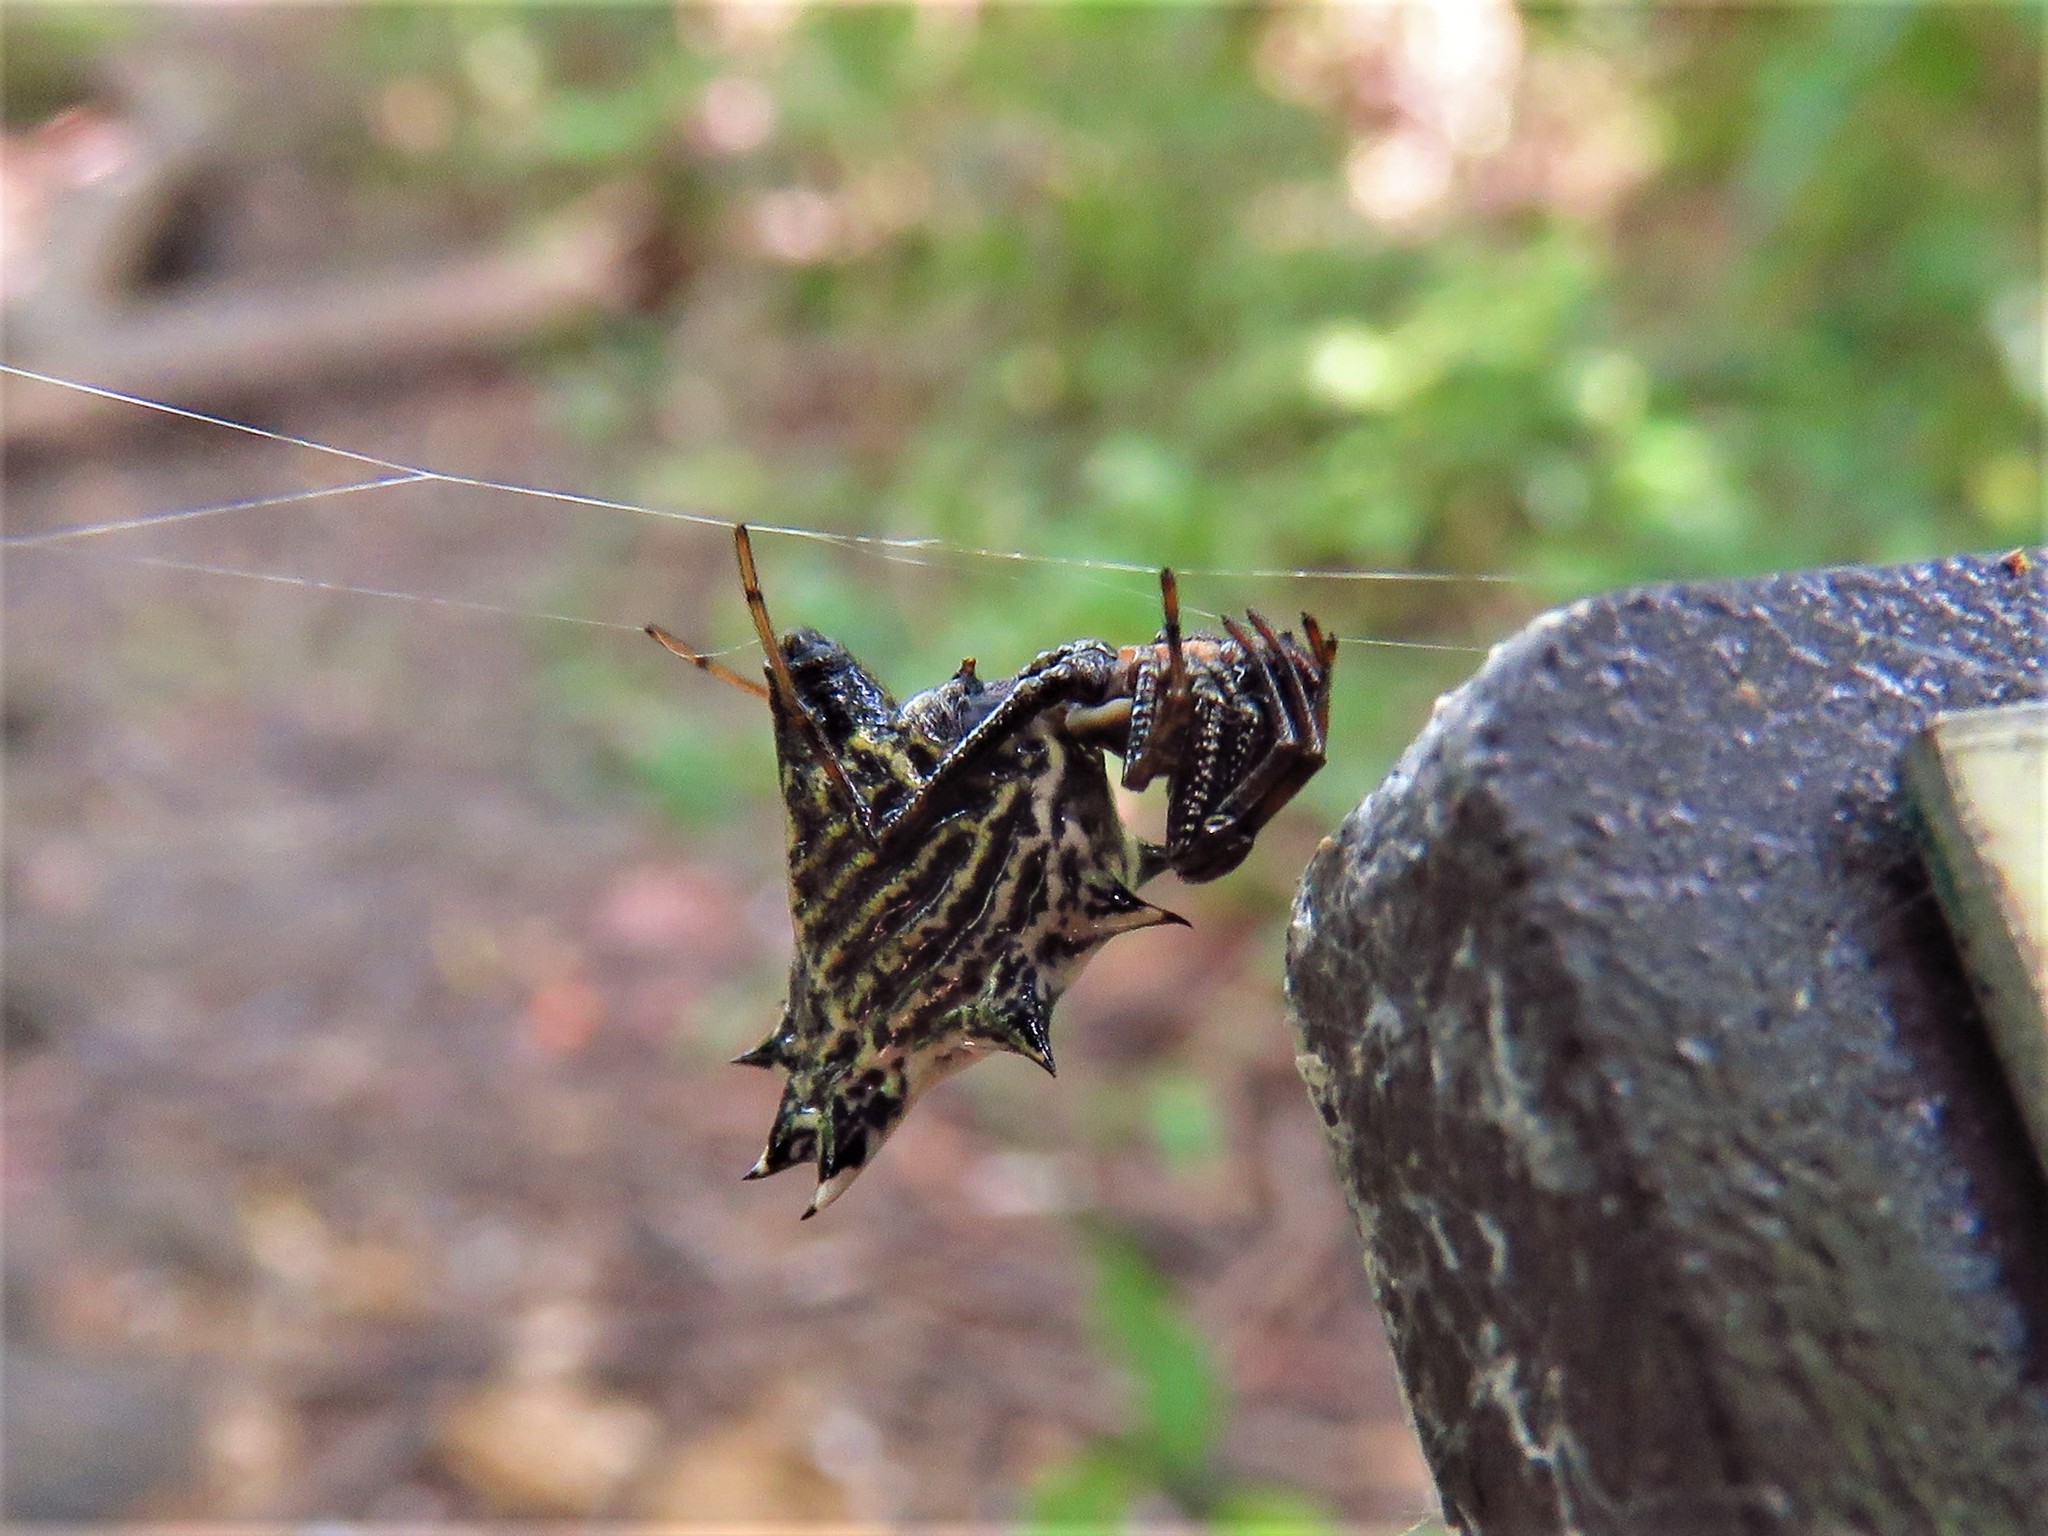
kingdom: Animalia
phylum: Arthropoda
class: Arachnida
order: Araneae
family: Araneidae
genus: Micrathena
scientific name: Micrathena gracilis
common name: Orb weavers
